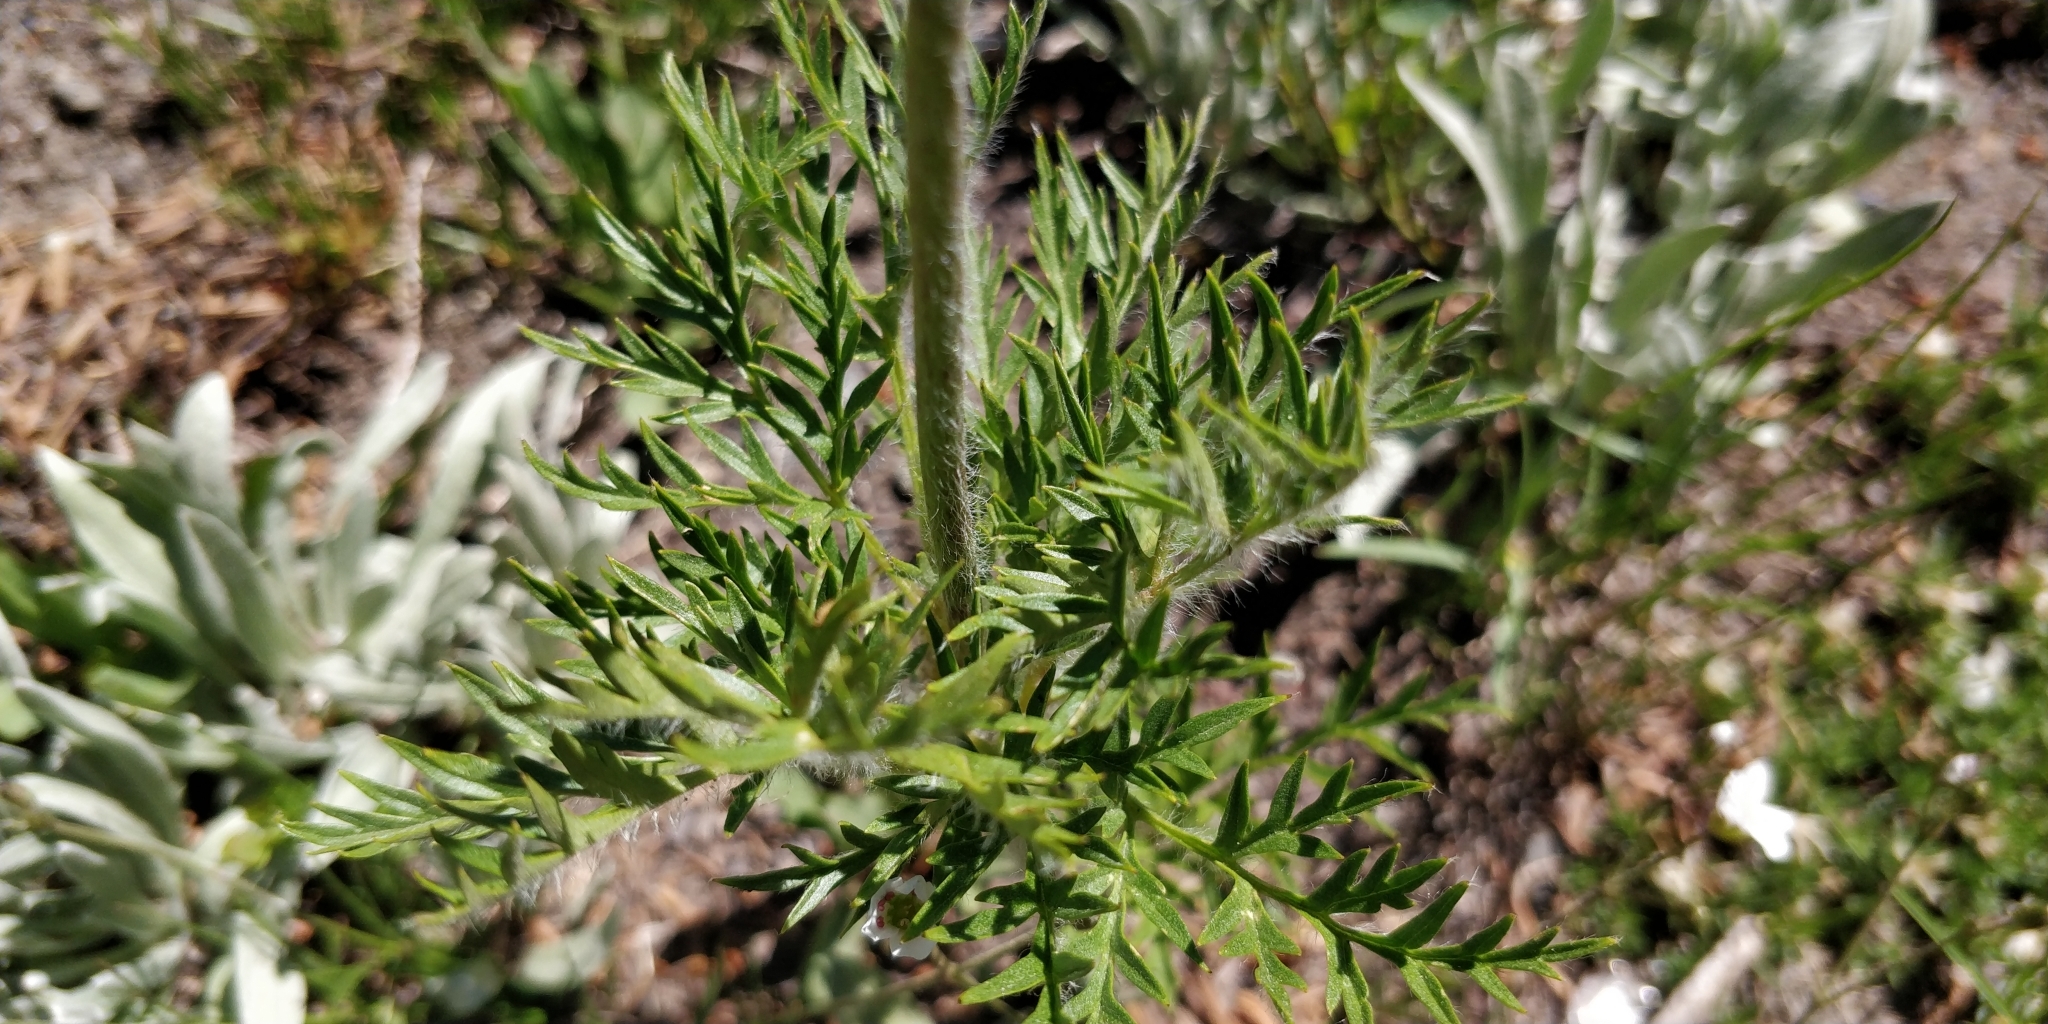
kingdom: Plantae
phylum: Tracheophyta
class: Magnoliopsida
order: Ranunculales
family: Ranunculaceae
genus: Pulsatilla
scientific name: Pulsatilla occidentalis
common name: Mountain pasqueflower
